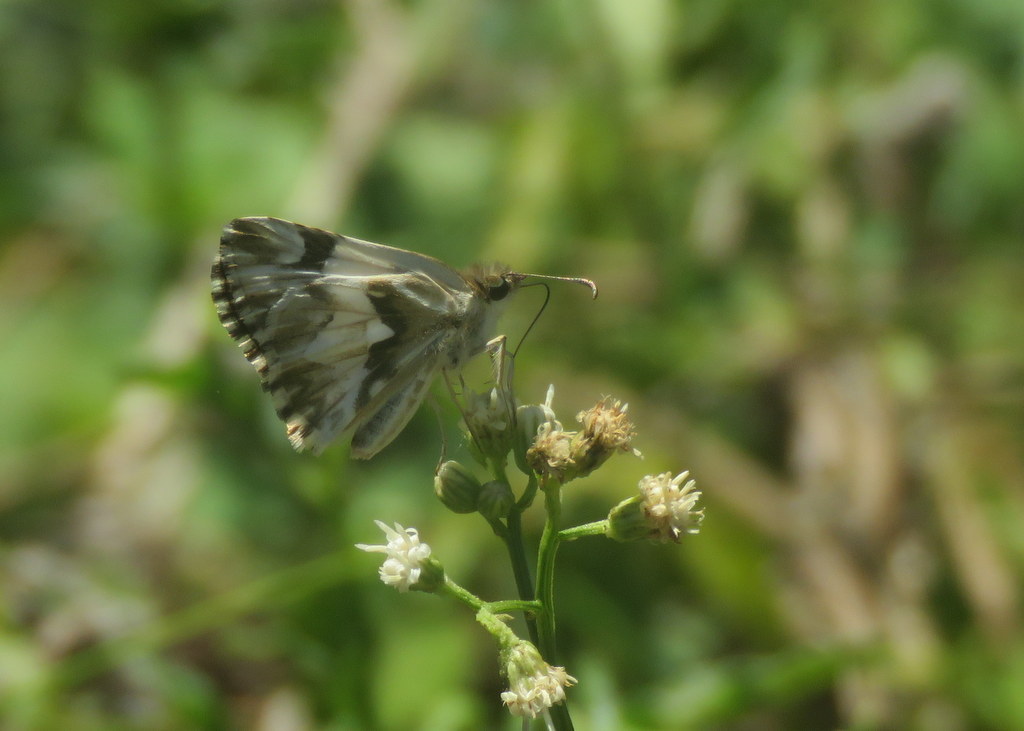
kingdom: Animalia
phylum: Arthropoda
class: Insecta
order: Lepidoptera
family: Hesperiidae
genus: Heliopetes
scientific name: Heliopetes omrina
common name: Stained white-skipper
